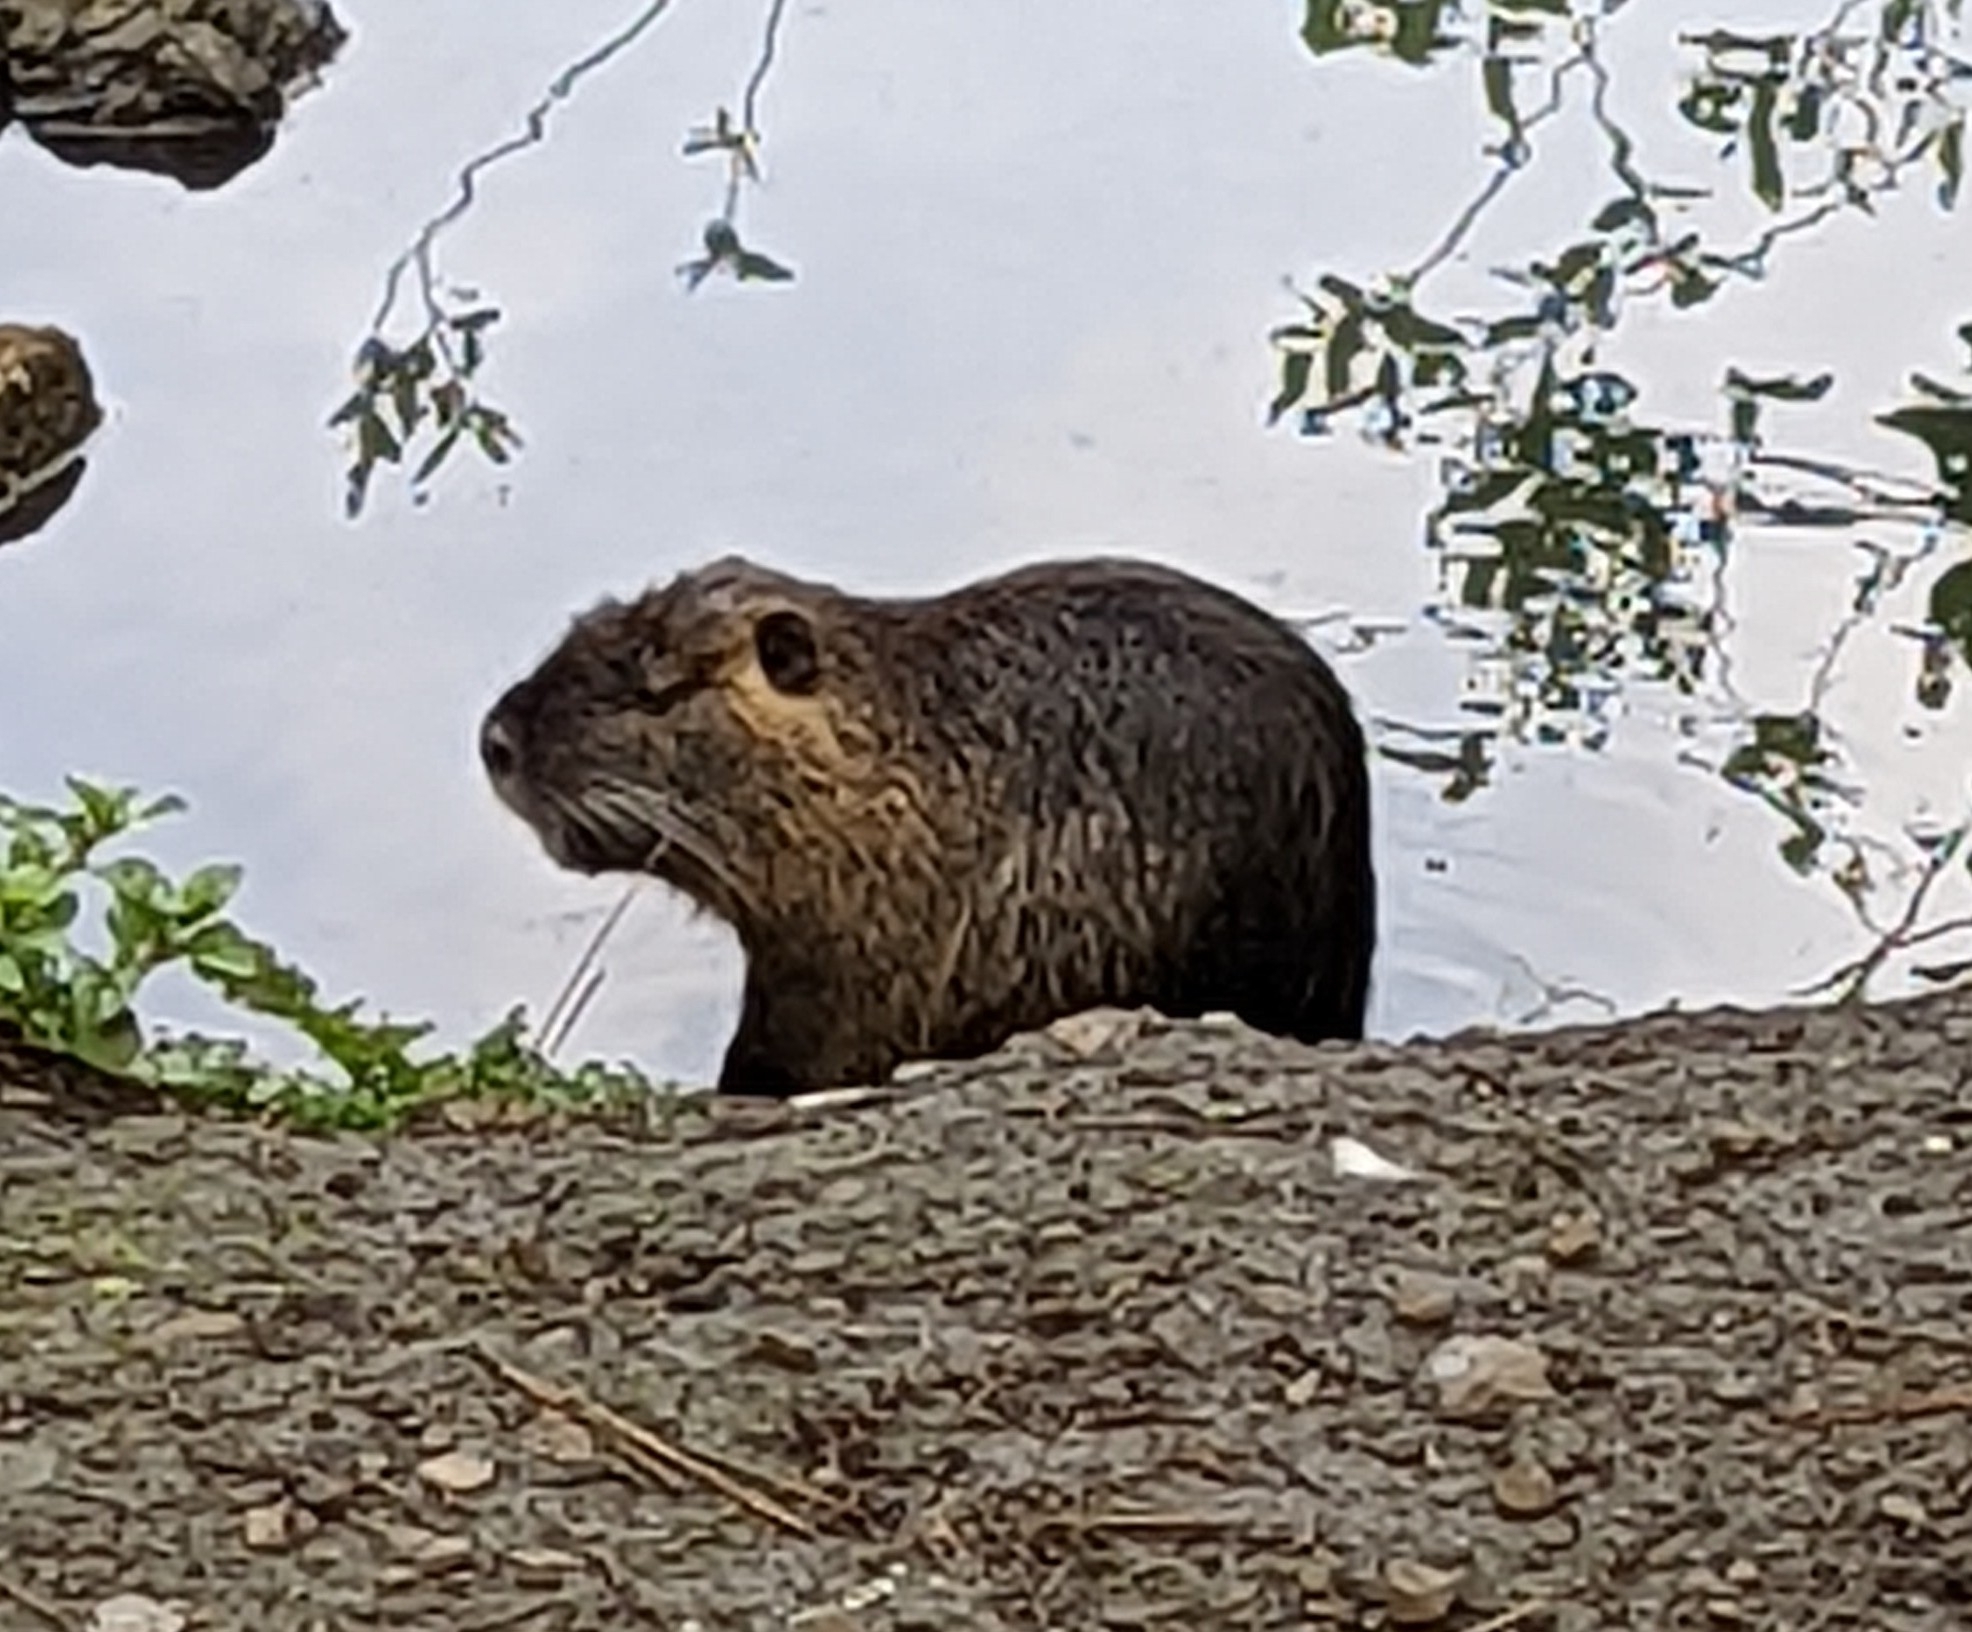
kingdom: Animalia
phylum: Chordata
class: Mammalia
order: Rodentia
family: Myocastoridae
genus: Myocastor
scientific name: Myocastor coypus
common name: Coypu
